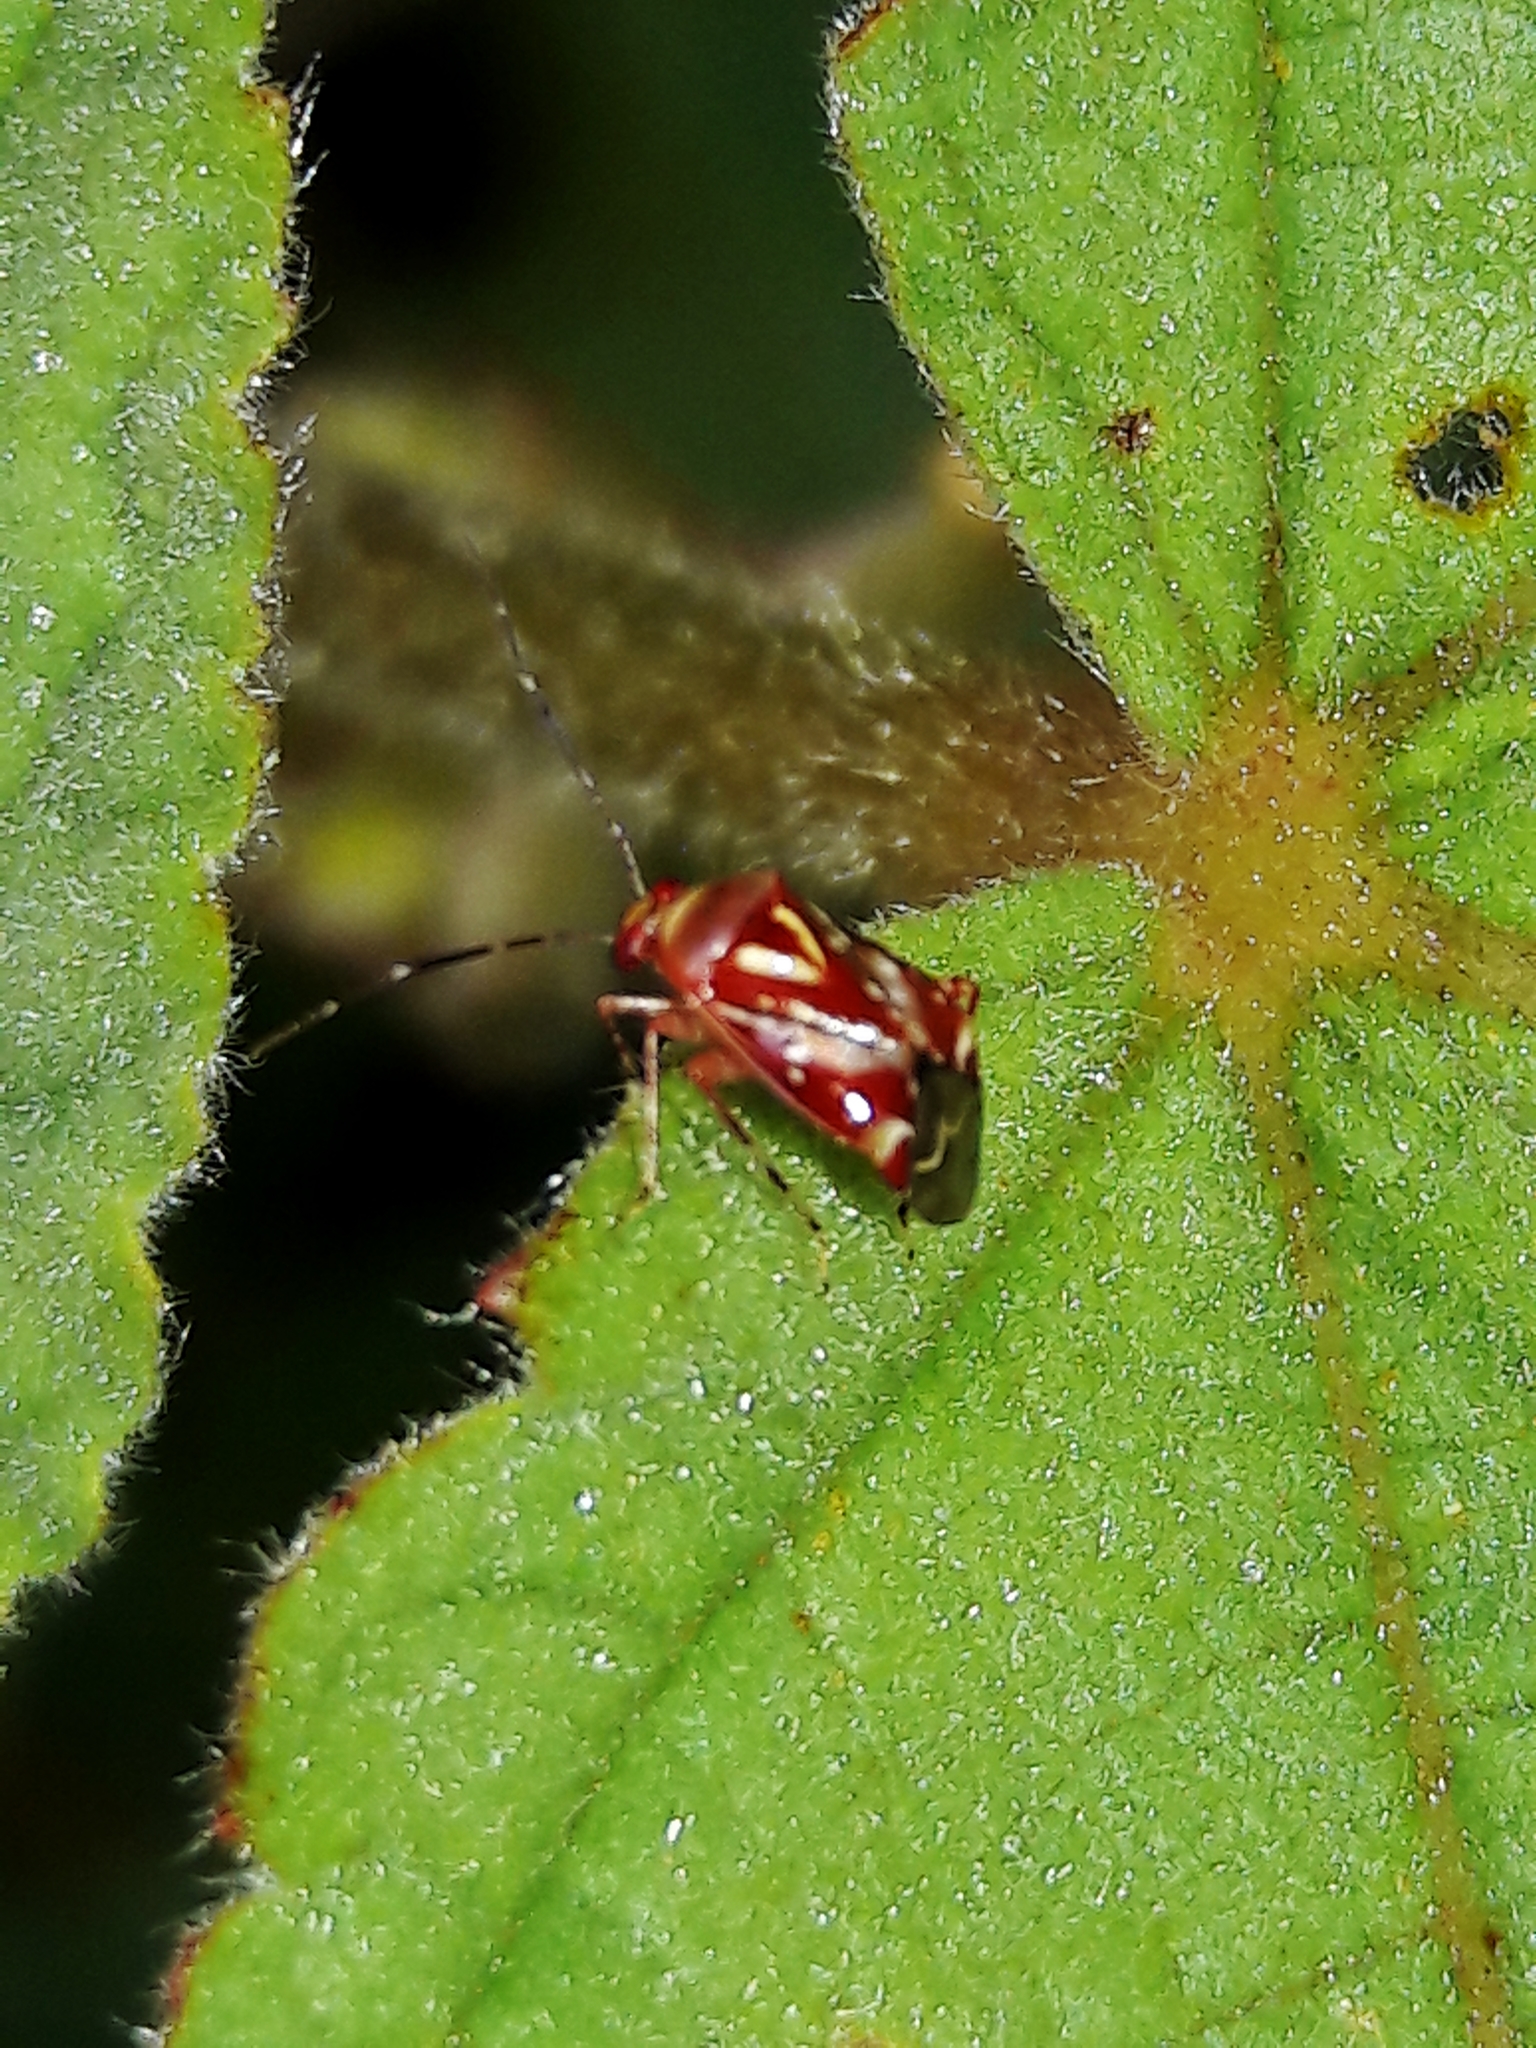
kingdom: Animalia
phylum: Arthropoda
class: Insecta
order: Hemiptera
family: Miridae
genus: Horciasoides
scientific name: Horciasoides nobilellus
